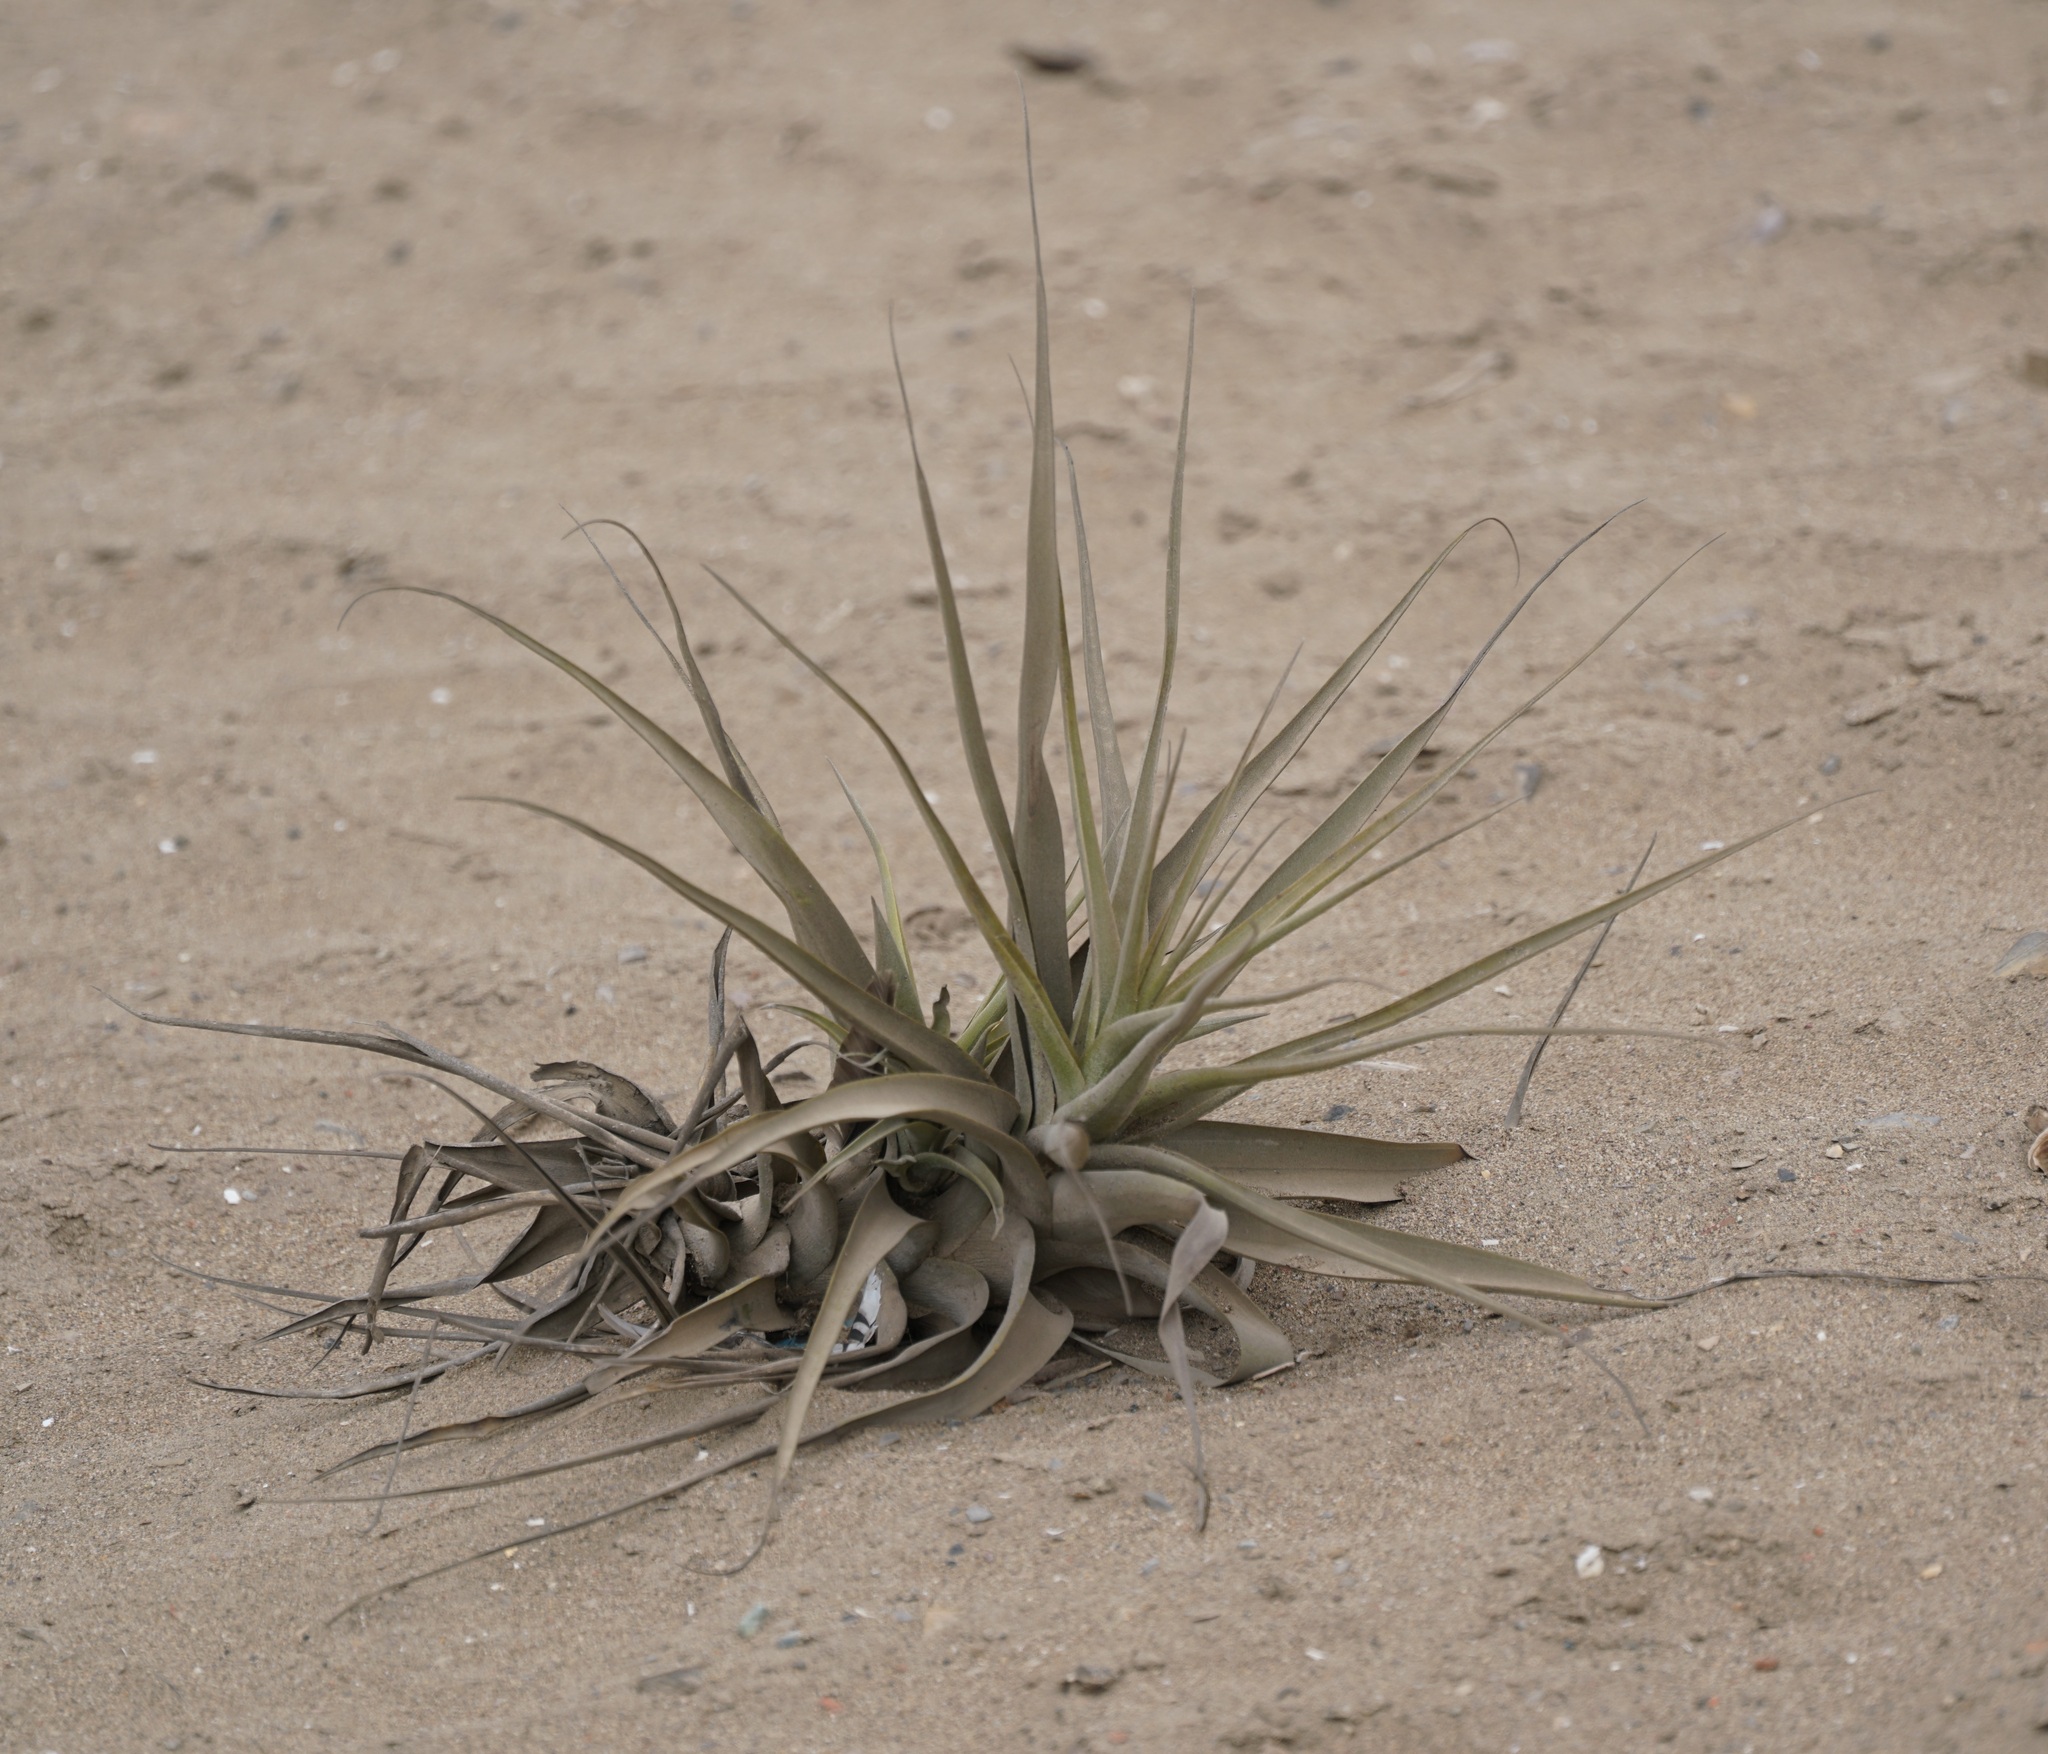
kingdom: Plantae
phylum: Tracheophyta
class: Liliopsida
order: Poales
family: Bromeliaceae
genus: Tillandsia
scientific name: Tillandsia latifolia
